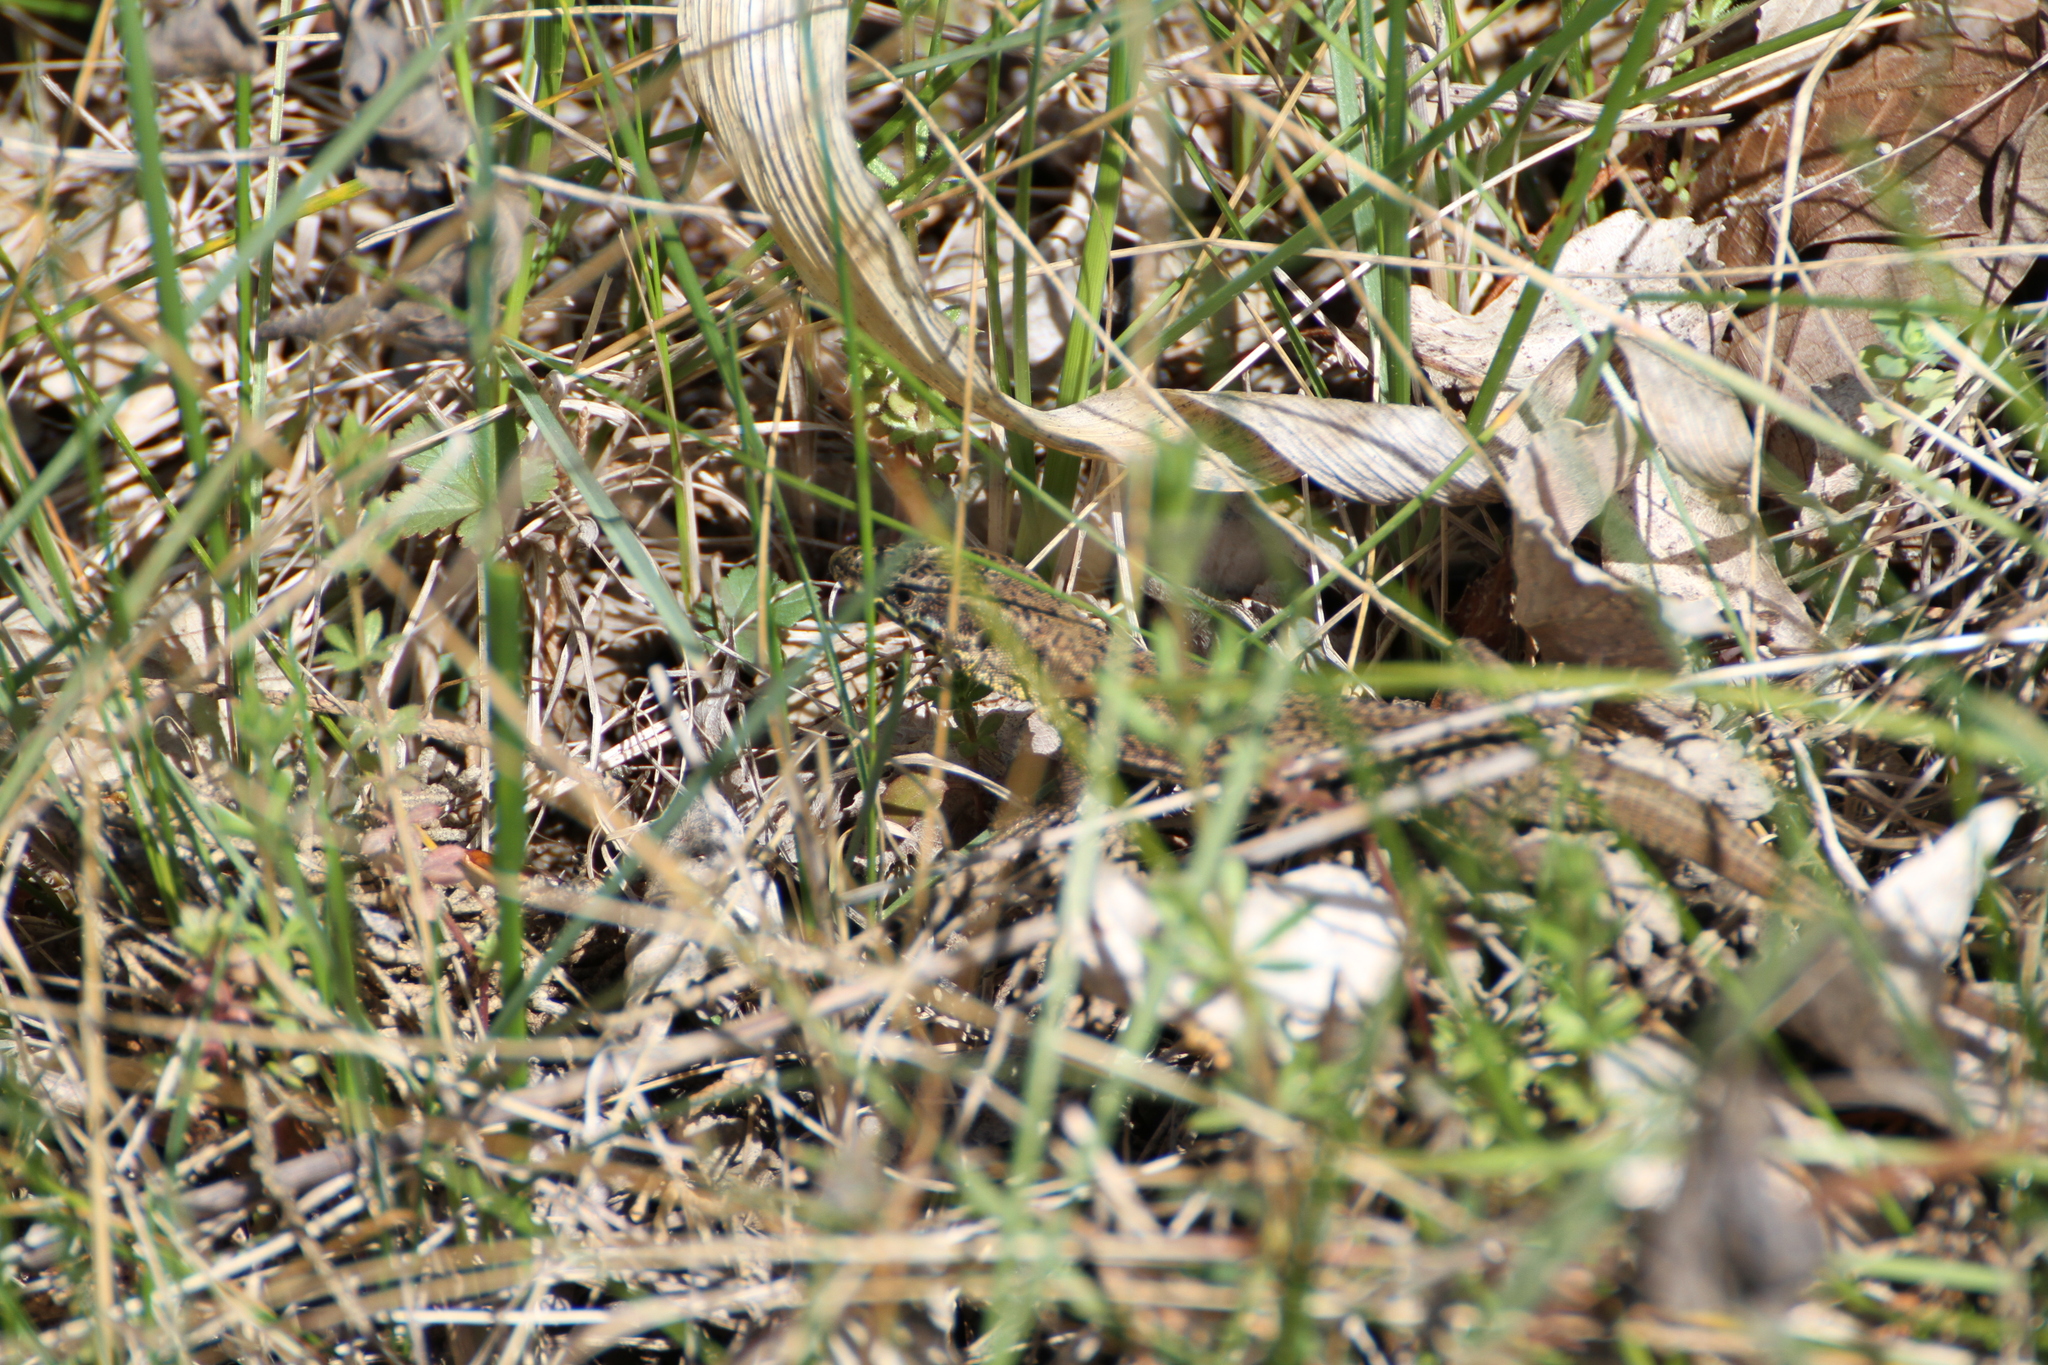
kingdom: Animalia
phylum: Chordata
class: Squamata
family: Lacertidae
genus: Podarcis
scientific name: Podarcis muralis
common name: Common wall lizard
